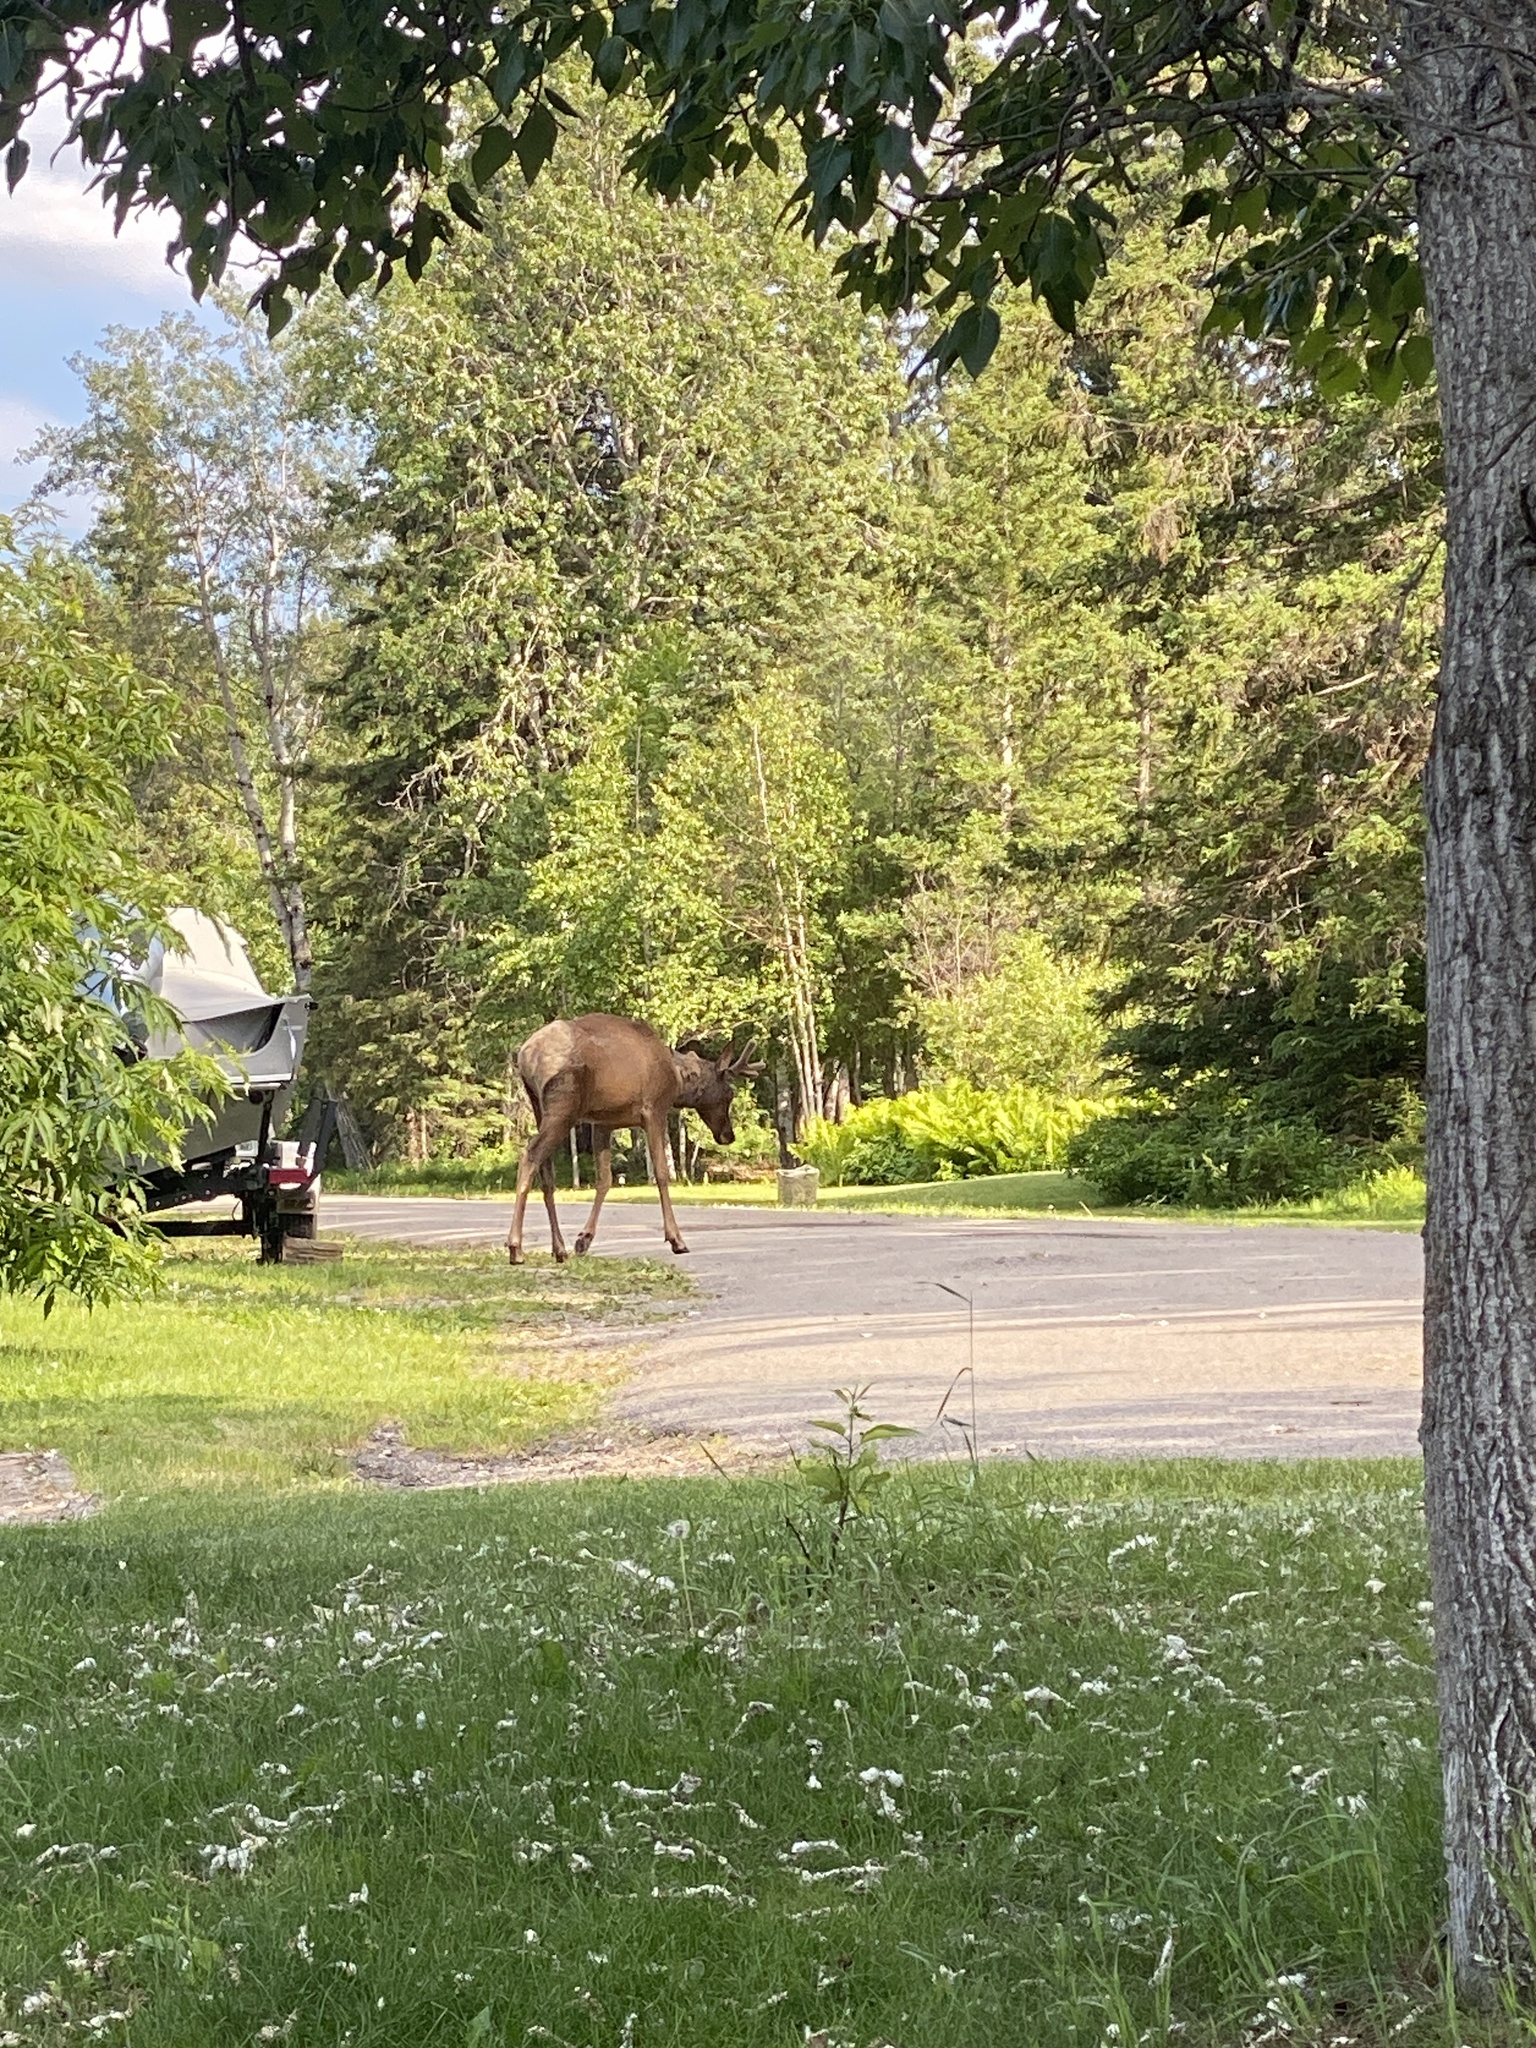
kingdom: Animalia
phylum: Chordata
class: Mammalia
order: Artiodactyla
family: Cervidae
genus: Cervus
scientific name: Cervus elaphus
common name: Red deer
